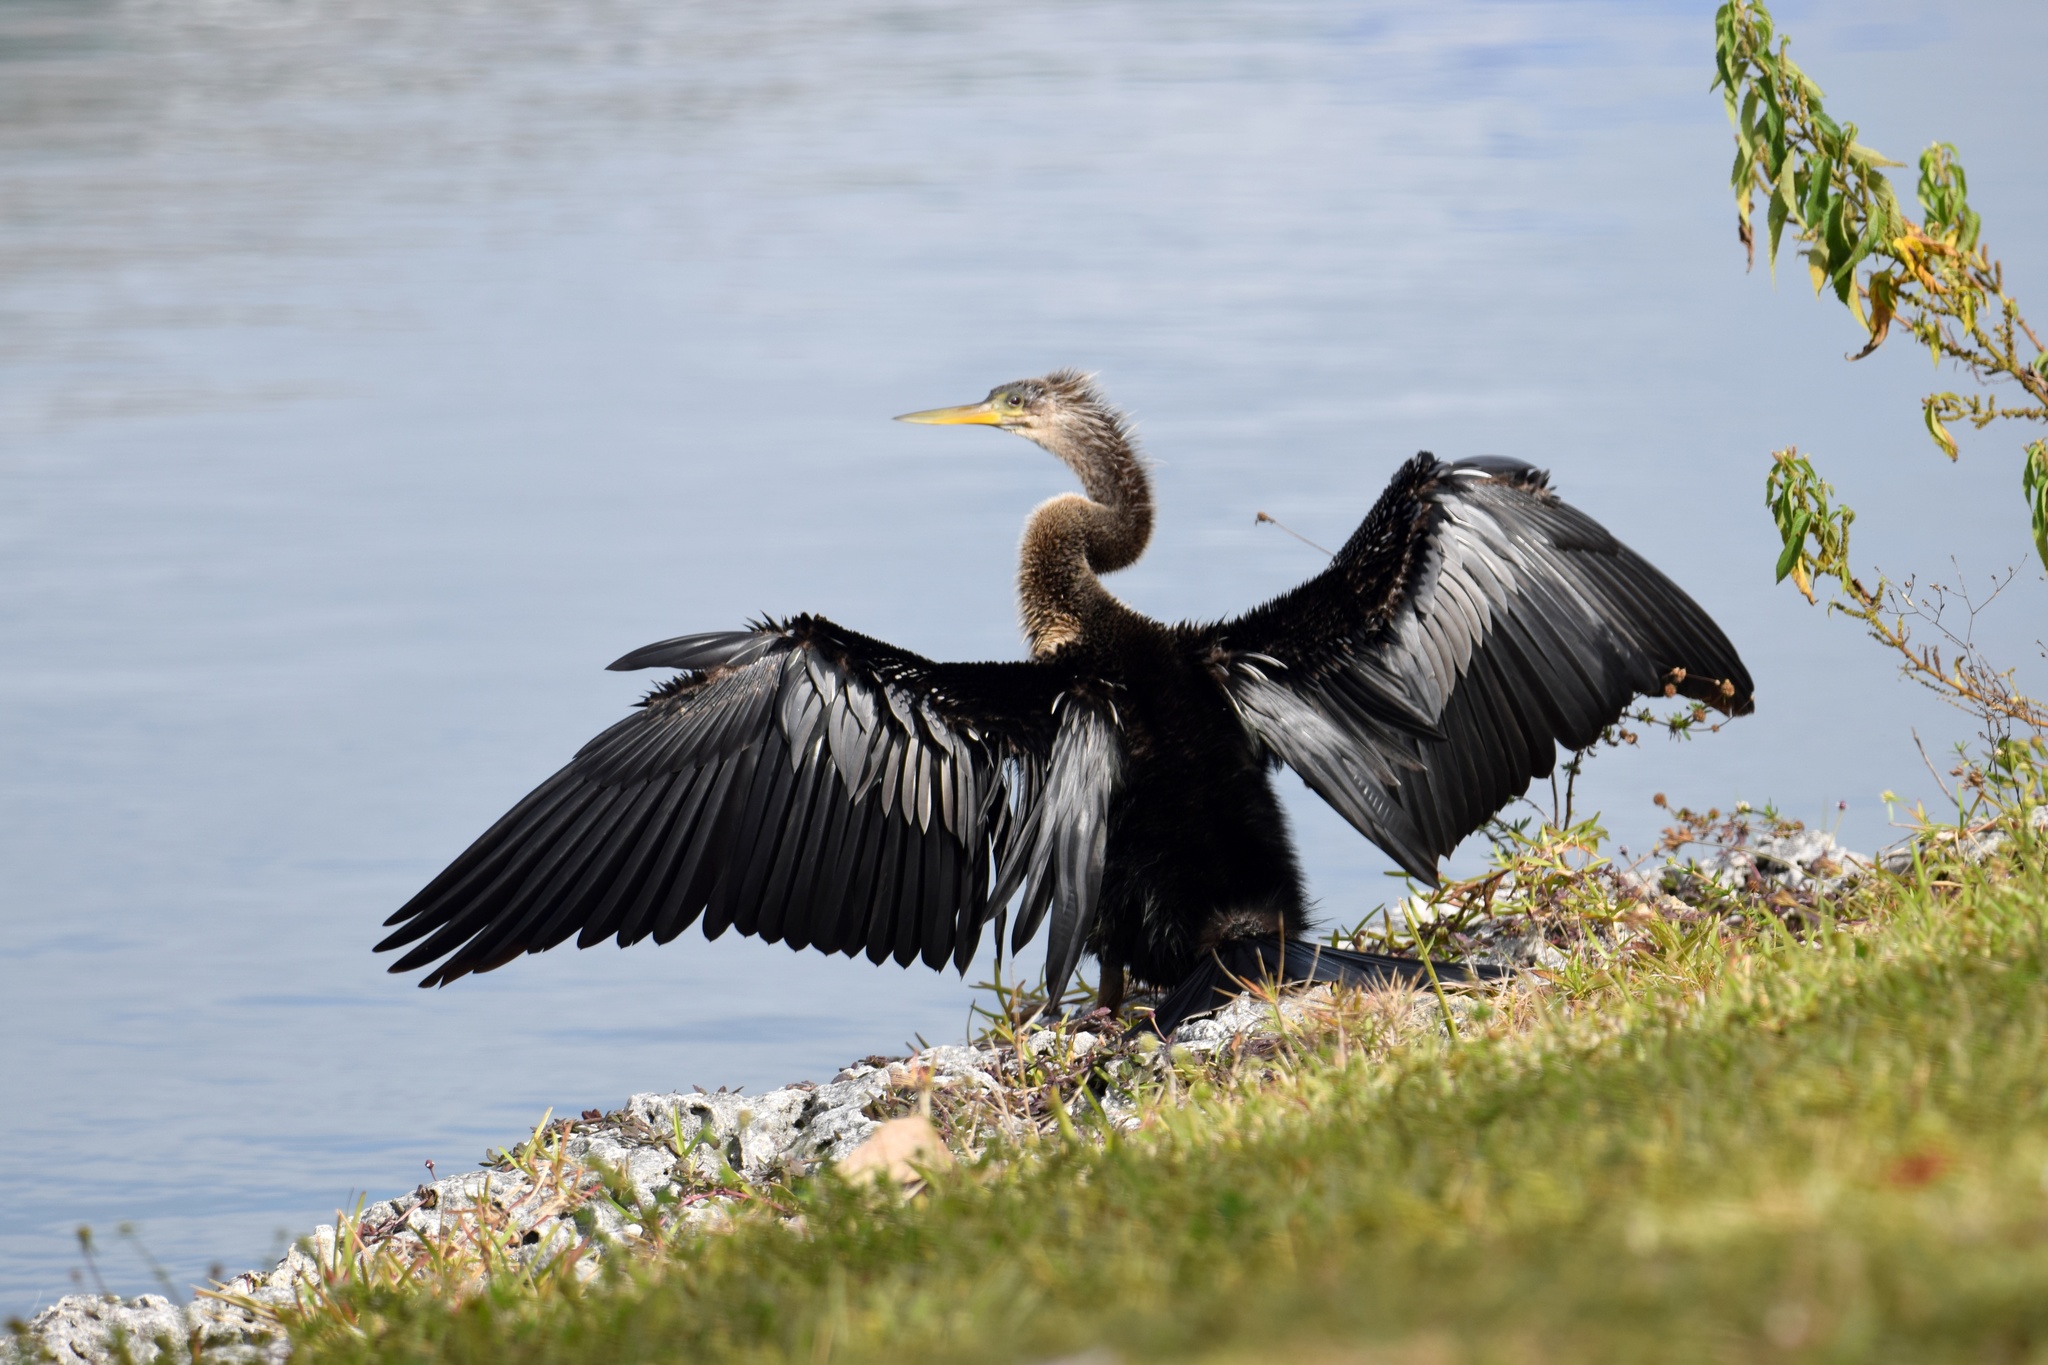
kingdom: Animalia
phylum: Chordata
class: Aves
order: Suliformes
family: Anhingidae
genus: Anhinga
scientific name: Anhinga anhinga
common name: Anhinga
